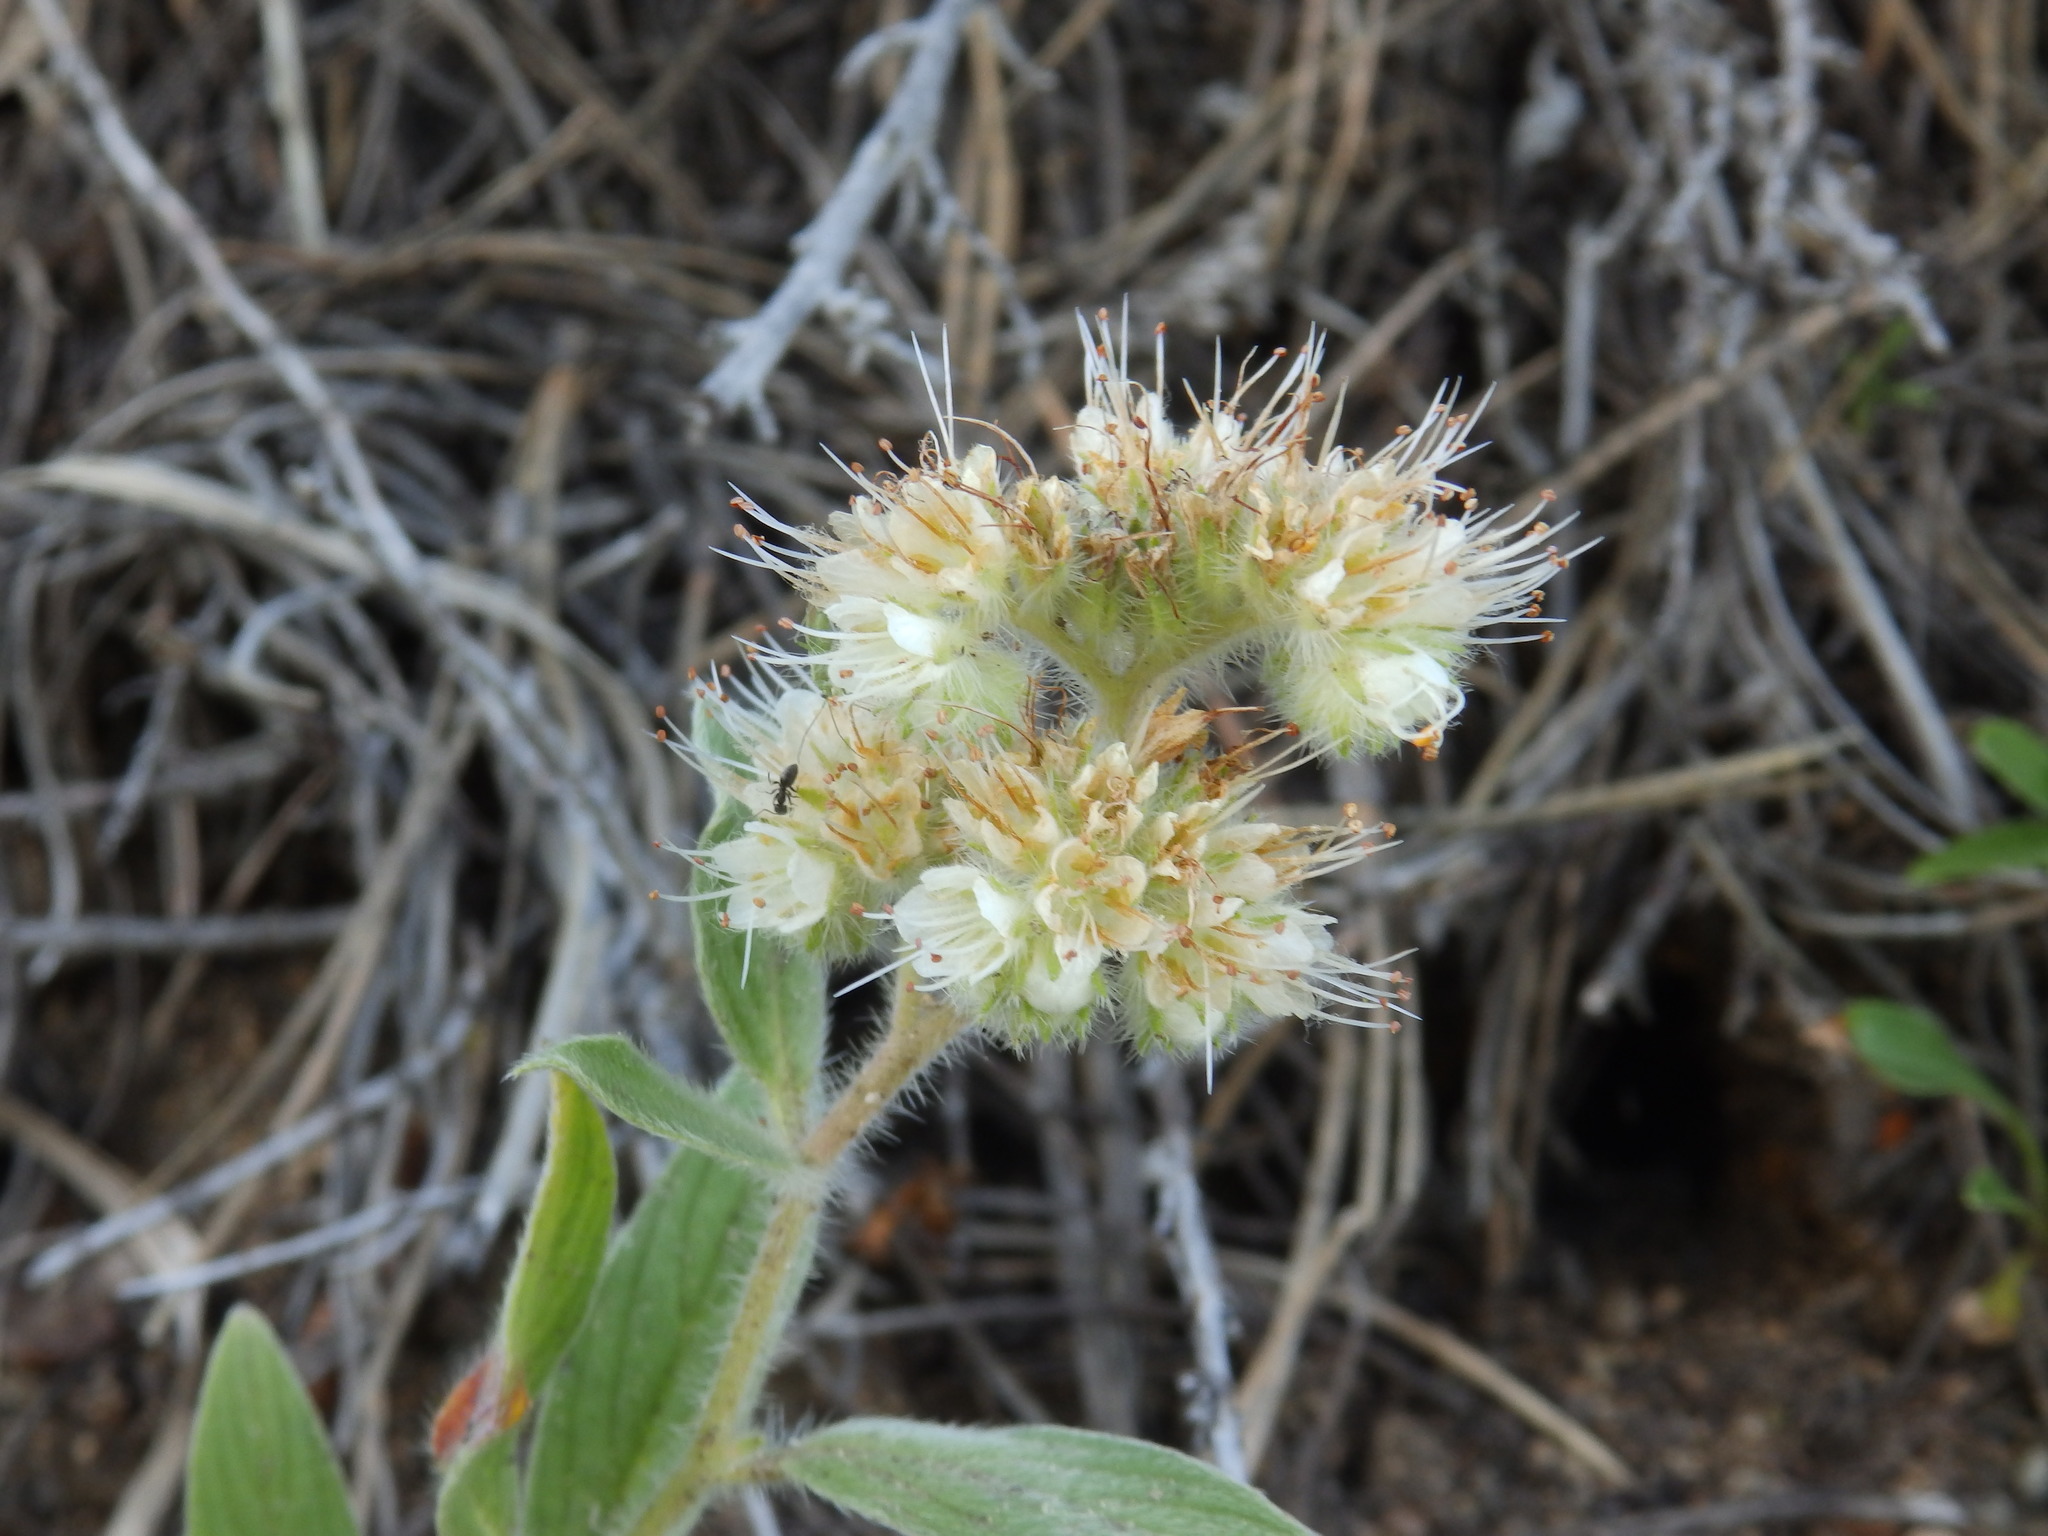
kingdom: Plantae
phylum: Tracheophyta
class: Magnoliopsida
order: Boraginales
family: Hydrophyllaceae
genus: Phacelia
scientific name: Phacelia hastata
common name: Silver-leaved phacelia
